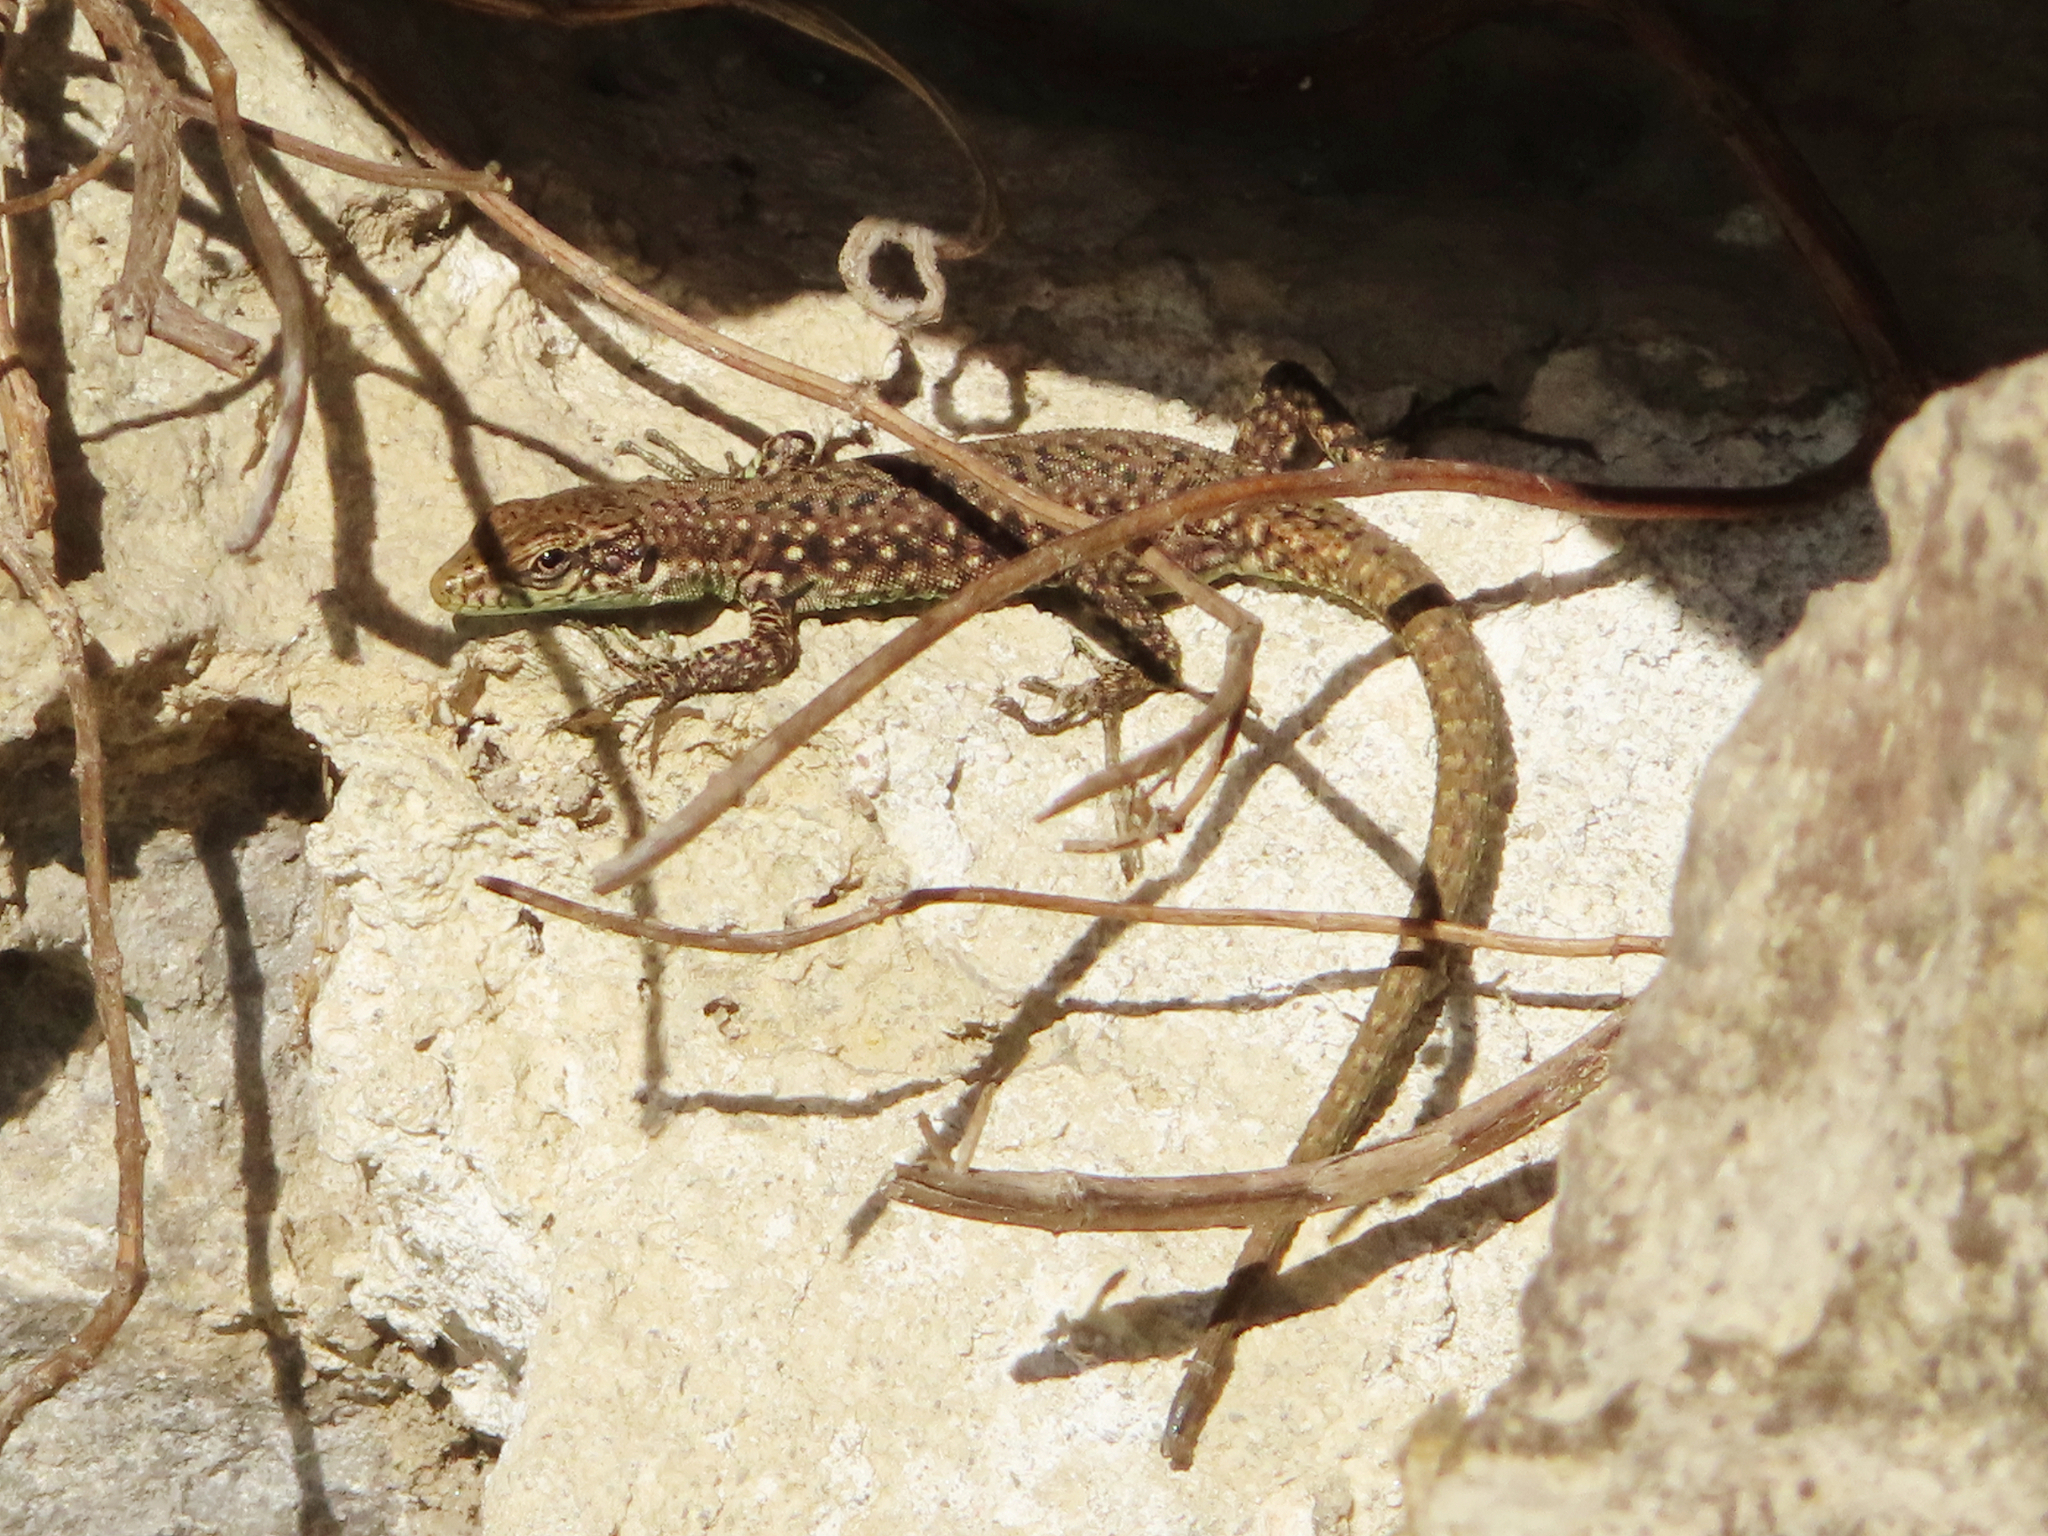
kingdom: Animalia
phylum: Chordata
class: Squamata
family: Lacertidae
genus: Darevskia
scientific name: Darevskia rudis
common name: Spiny-tailed lizard
